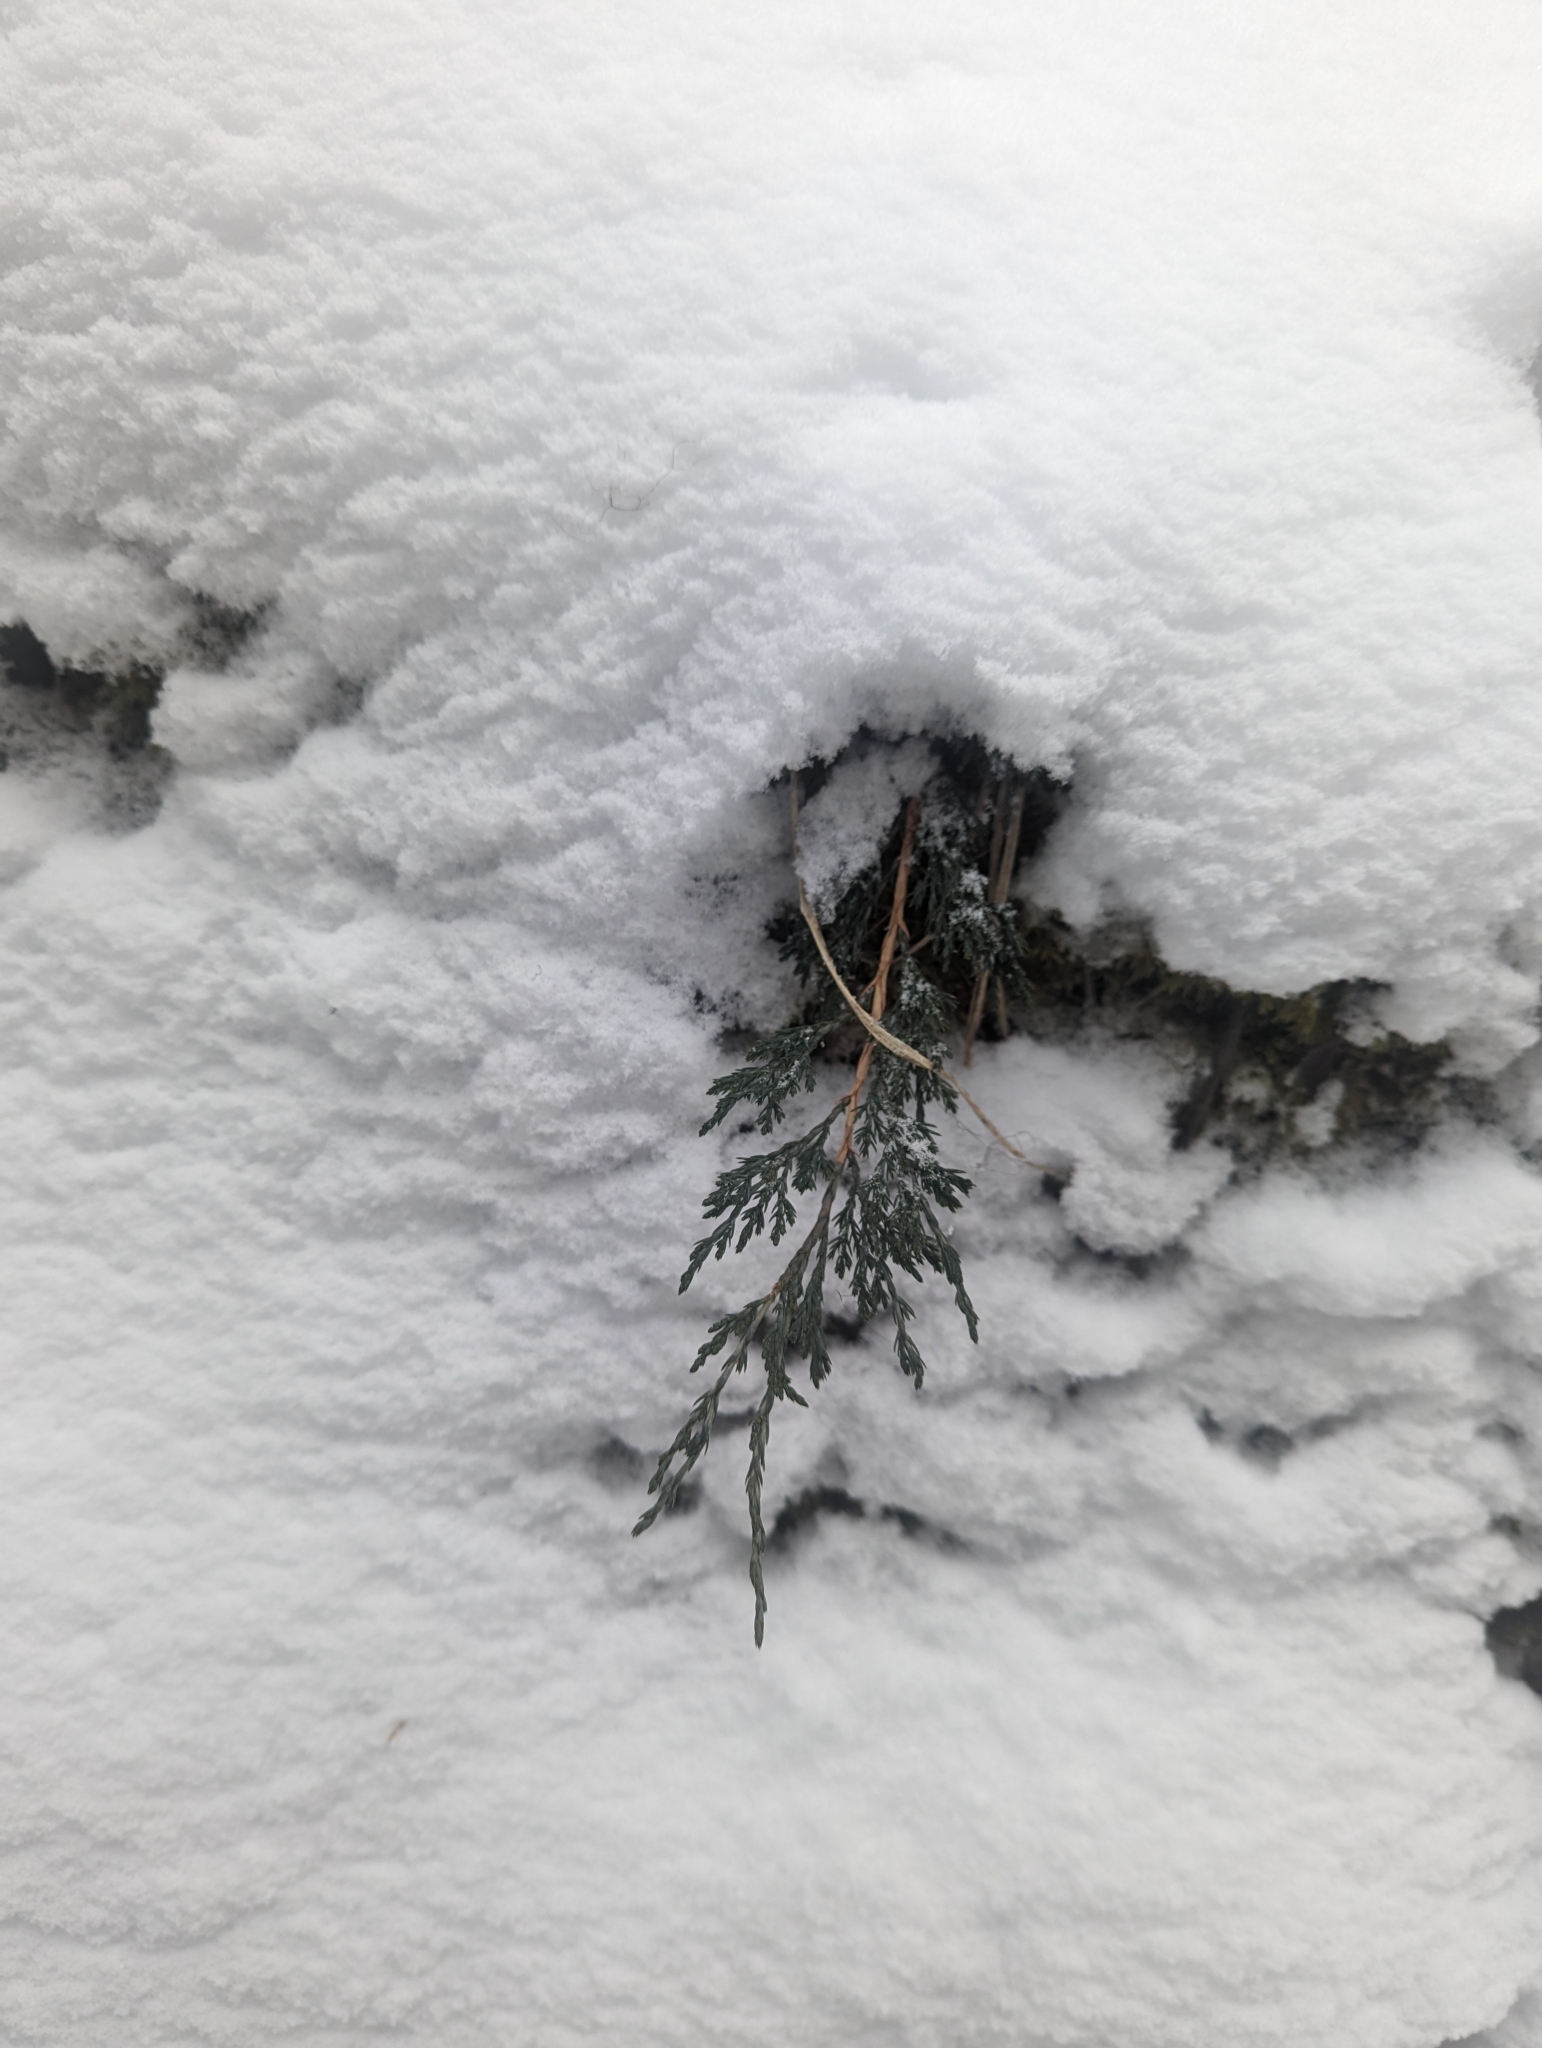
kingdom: Plantae
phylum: Tracheophyta
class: Pinopsida
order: Pinales
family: Cupressaceae
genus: Juniperus
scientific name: Juniperus horizontalis
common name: Creeping juniper
